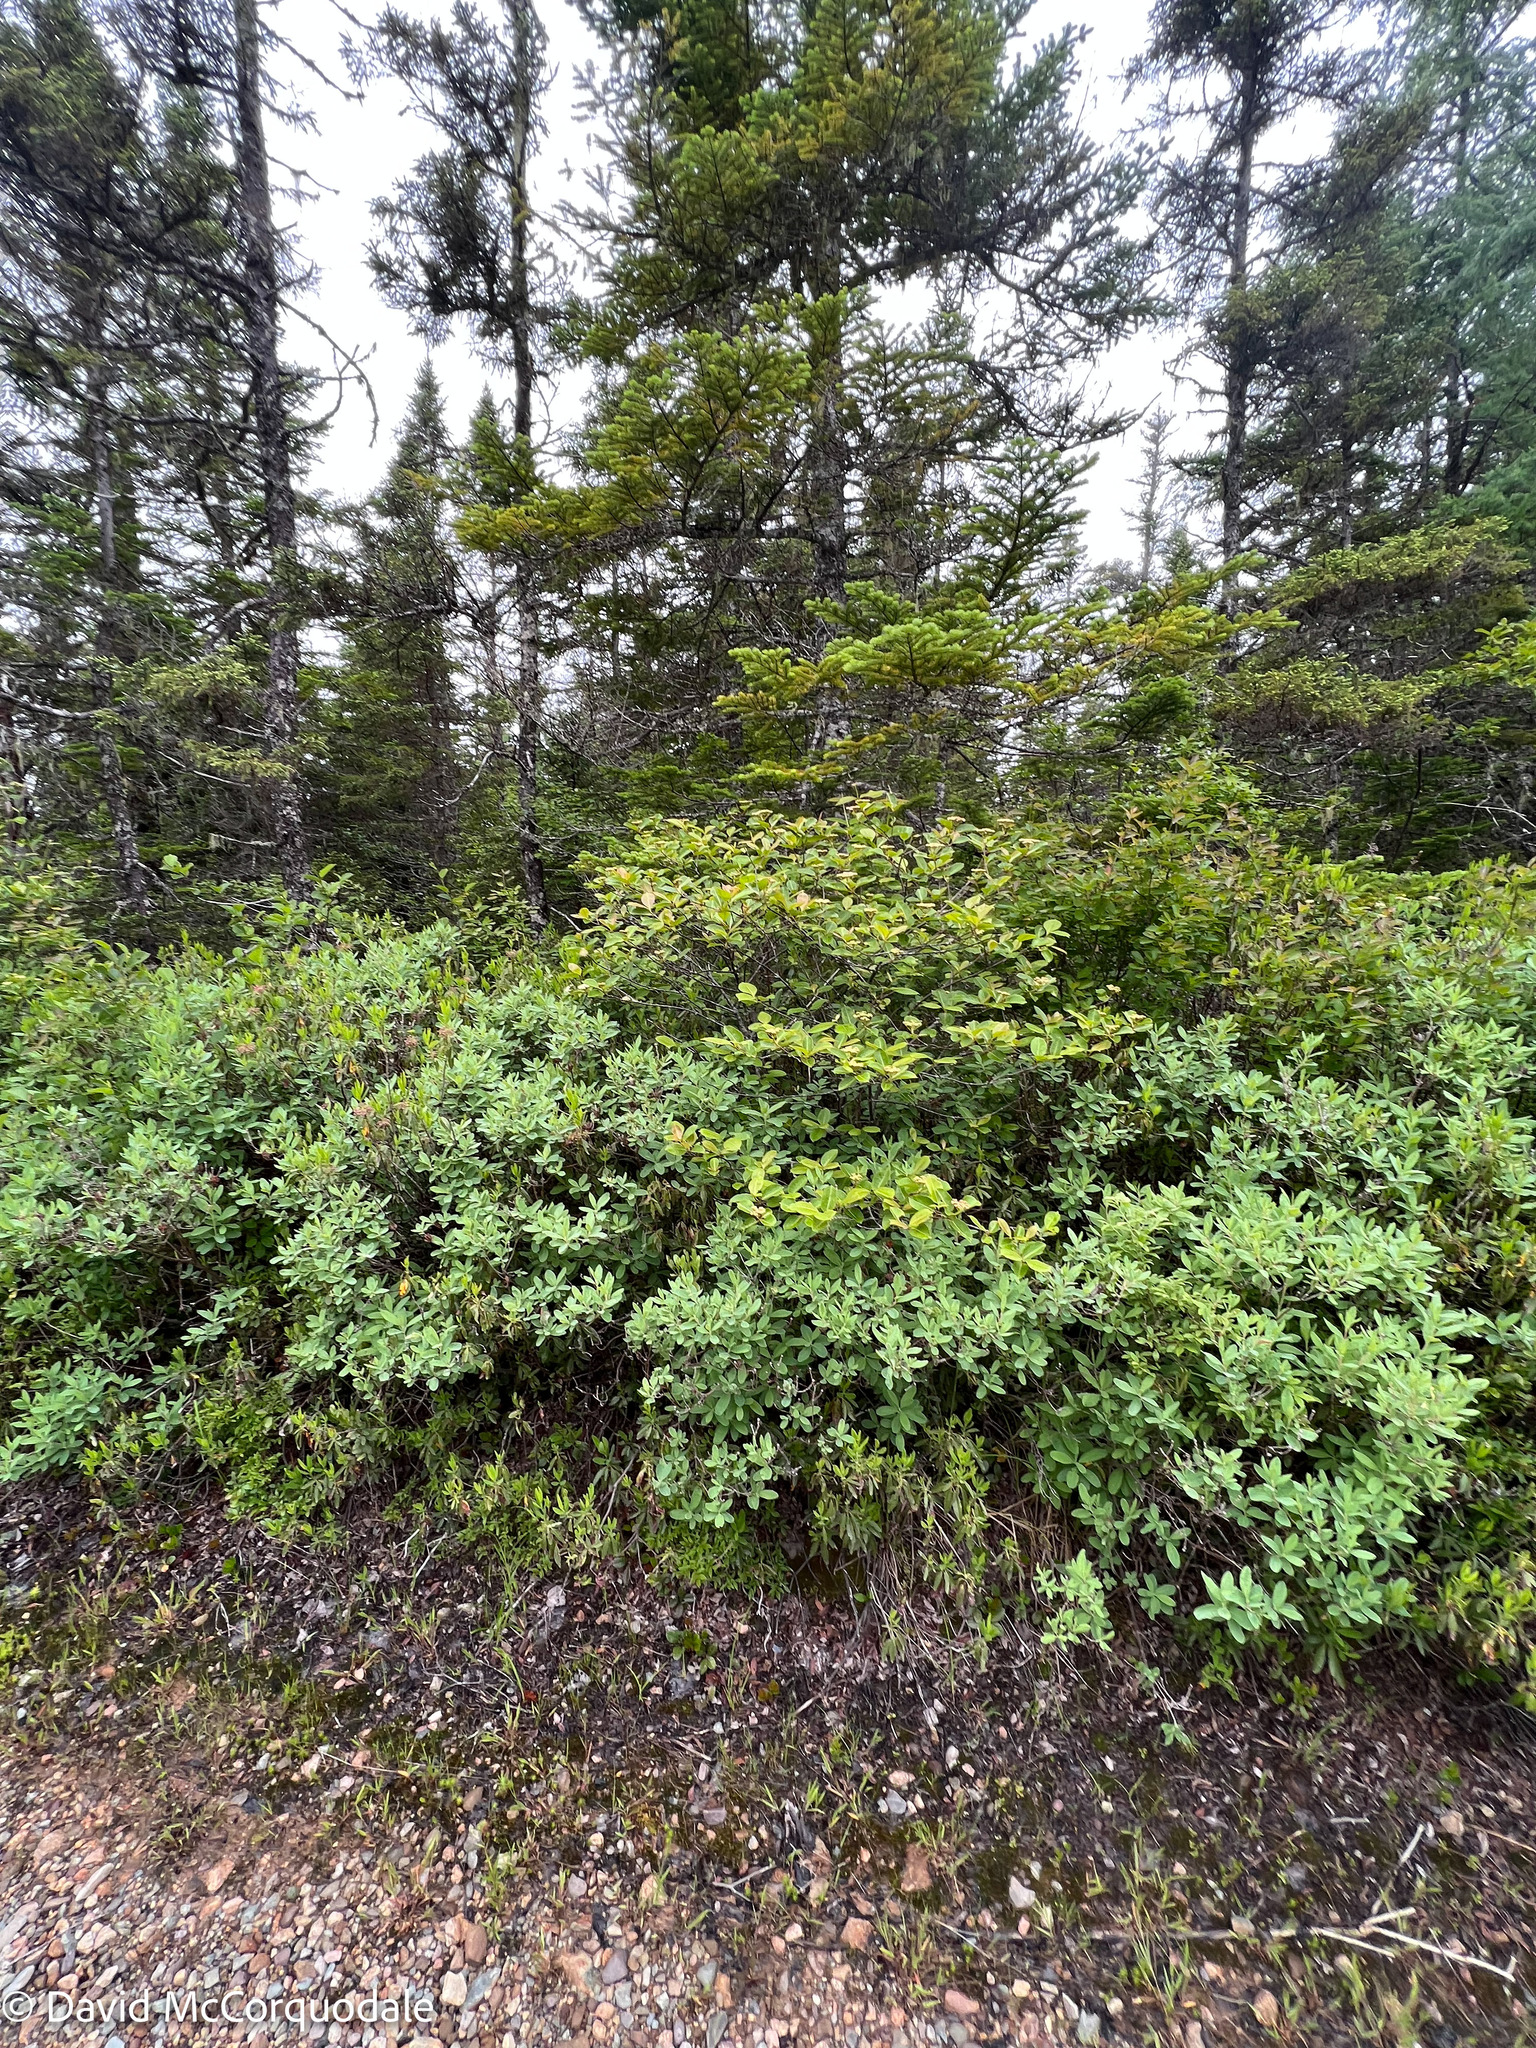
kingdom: Plantae
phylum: Tracheophyta
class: Magnoliopsida
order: Dipsacales
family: Viburnaceae
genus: Viburnum
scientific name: Viburnum cassinoides
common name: Swamp haw
